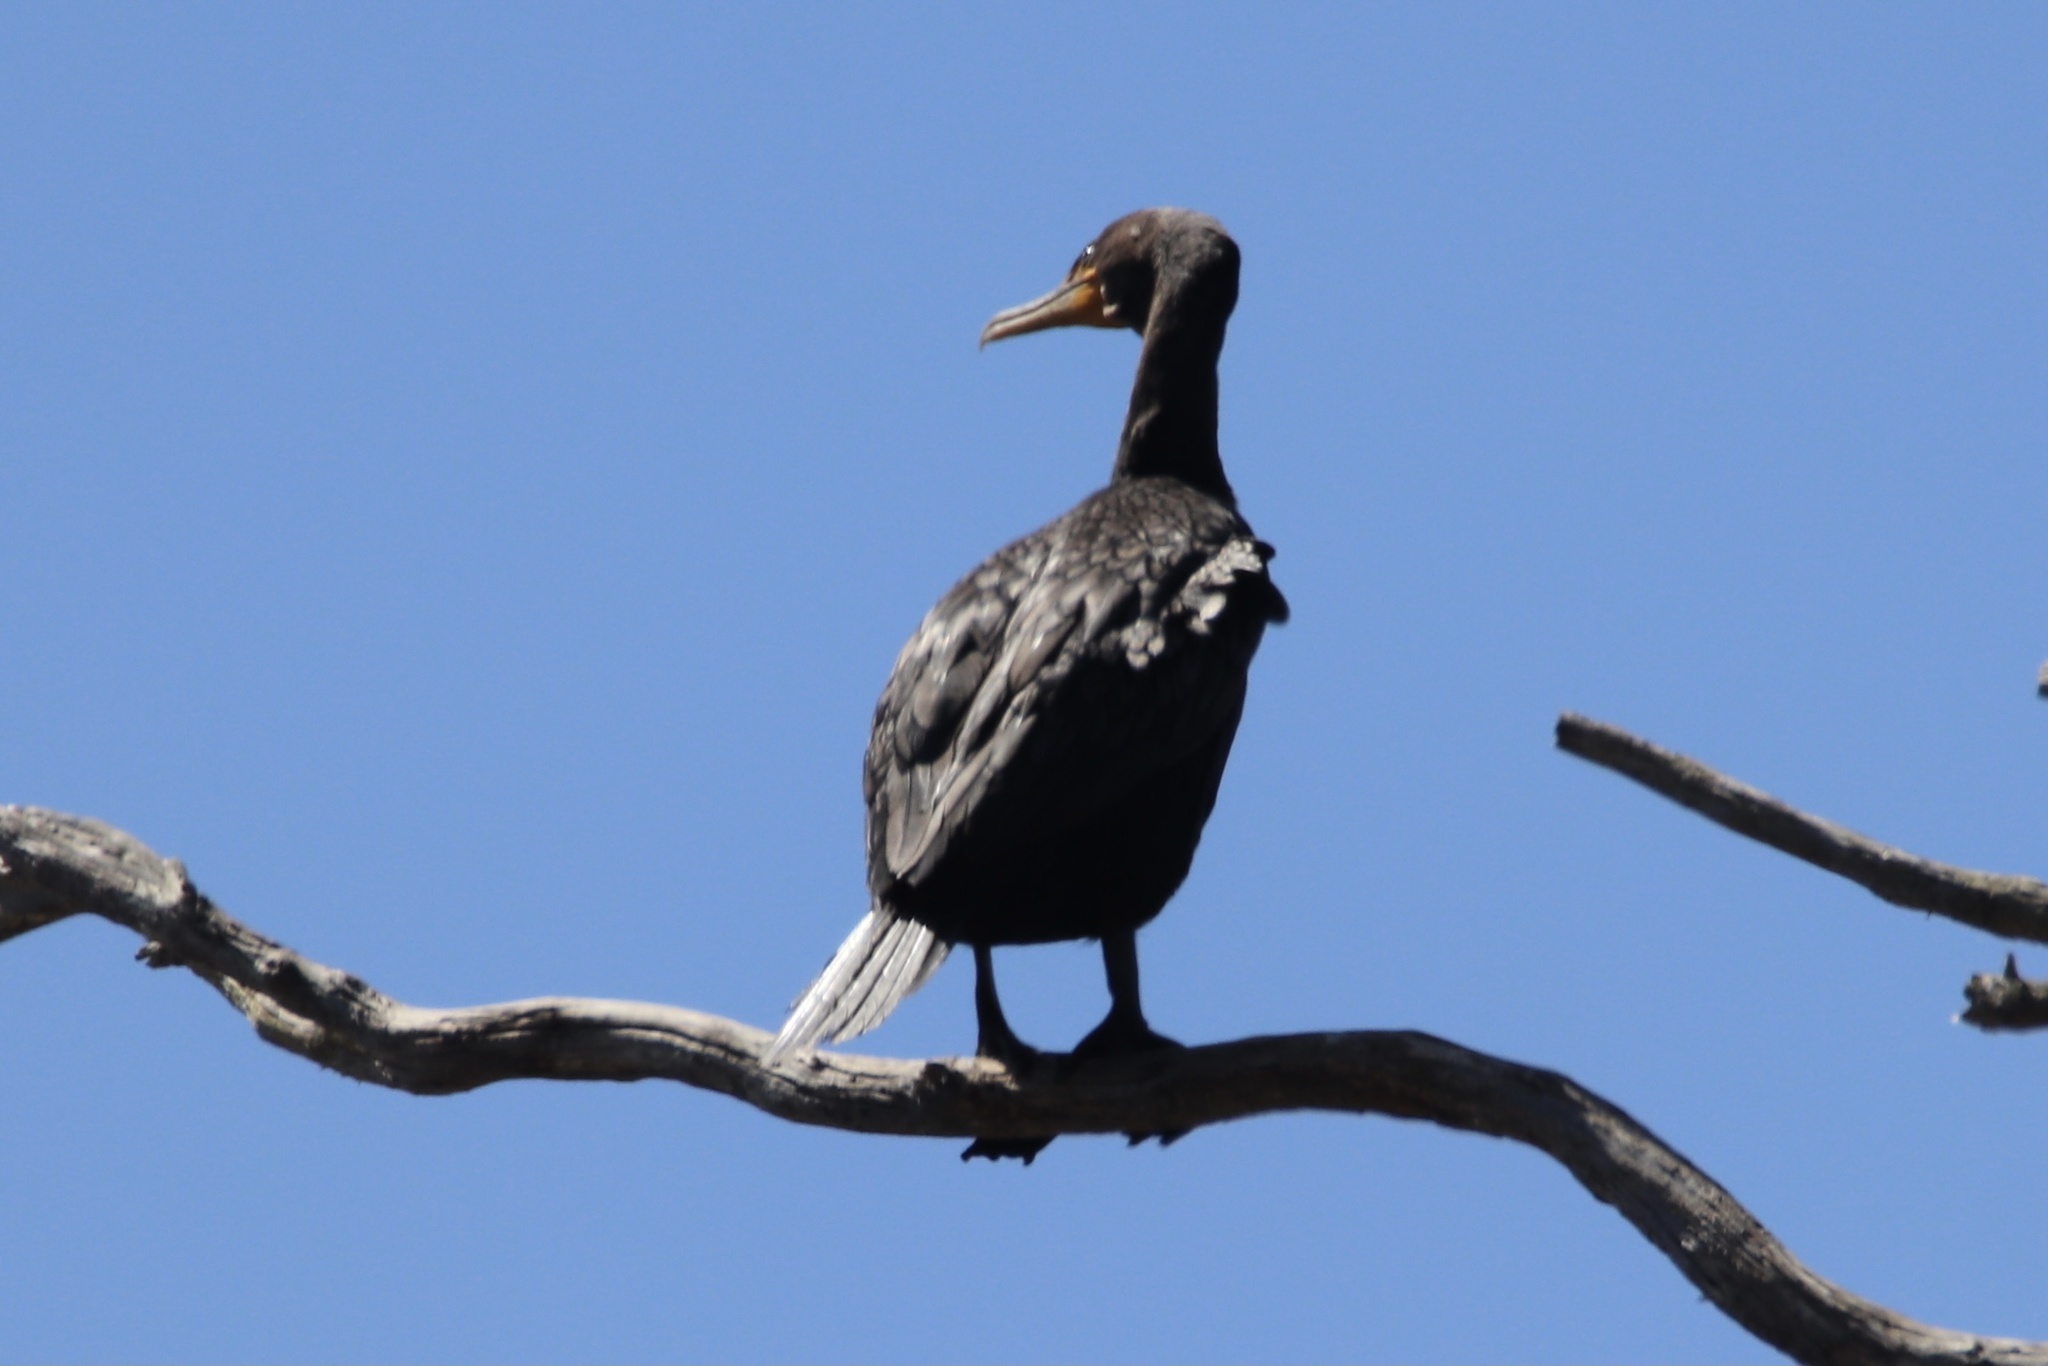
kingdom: Animalia
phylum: Chordata
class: Aves
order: Suliformes
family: Phalacrocoracidae
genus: Phalacrocorax
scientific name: Phalacrocorax auritus
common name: Double-crested cormorant
